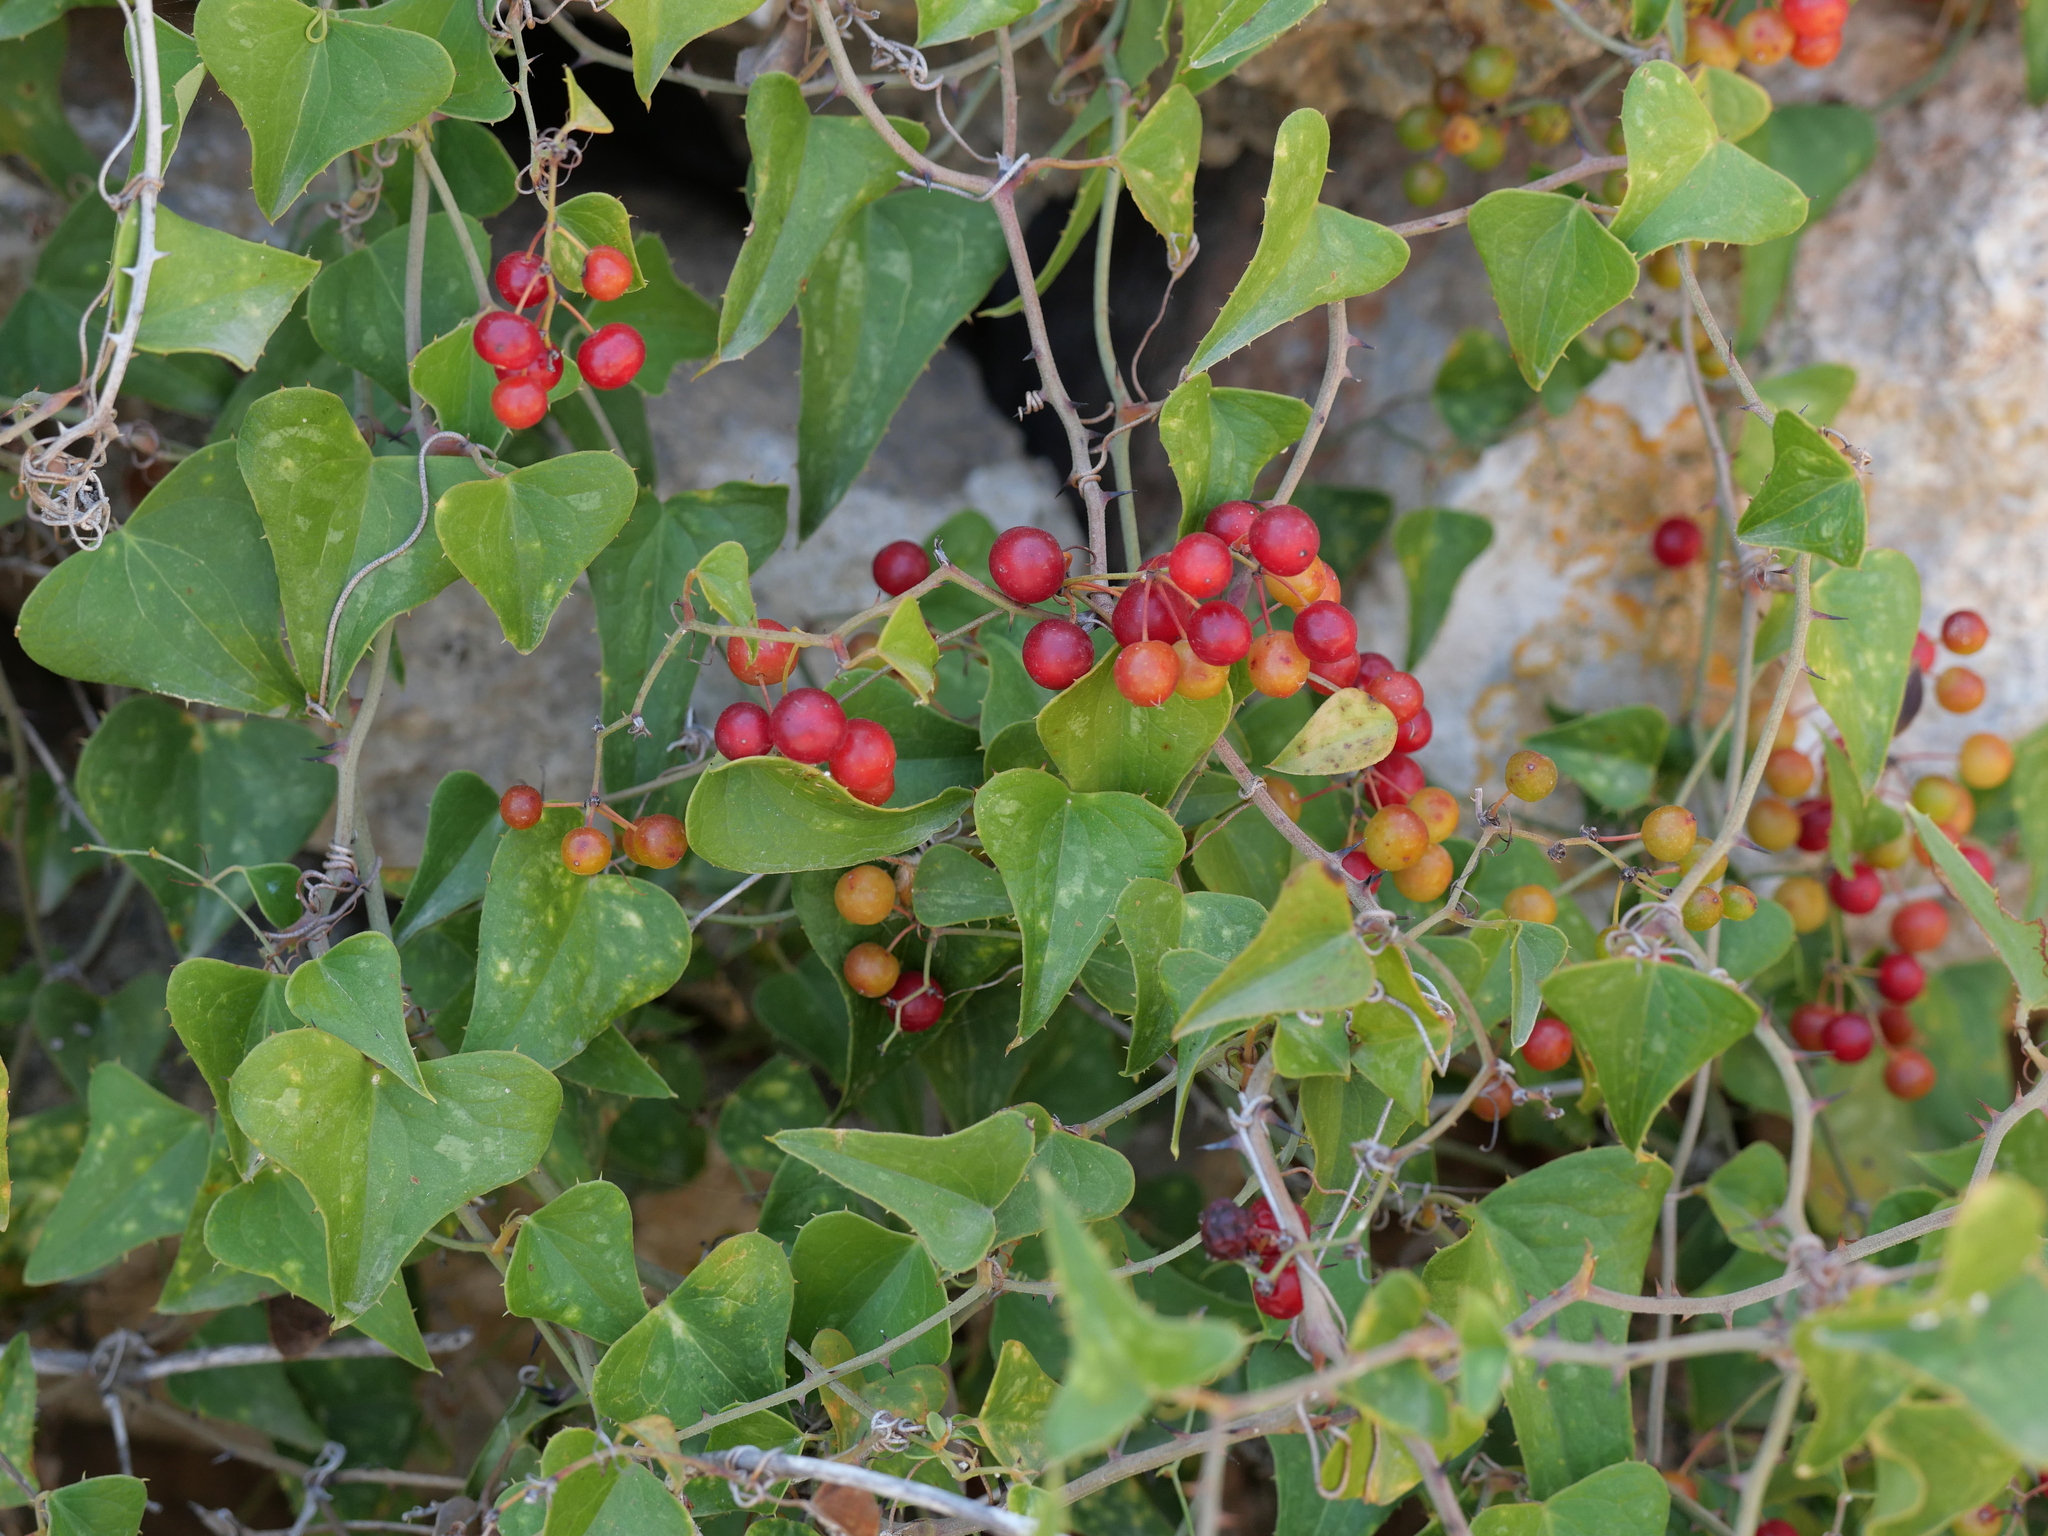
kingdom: Plantae
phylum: Tracheophyta
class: Liliopsida
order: Liliales
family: Smilacaceae
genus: Smilax
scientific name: Smilax aspera
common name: Common smilax
